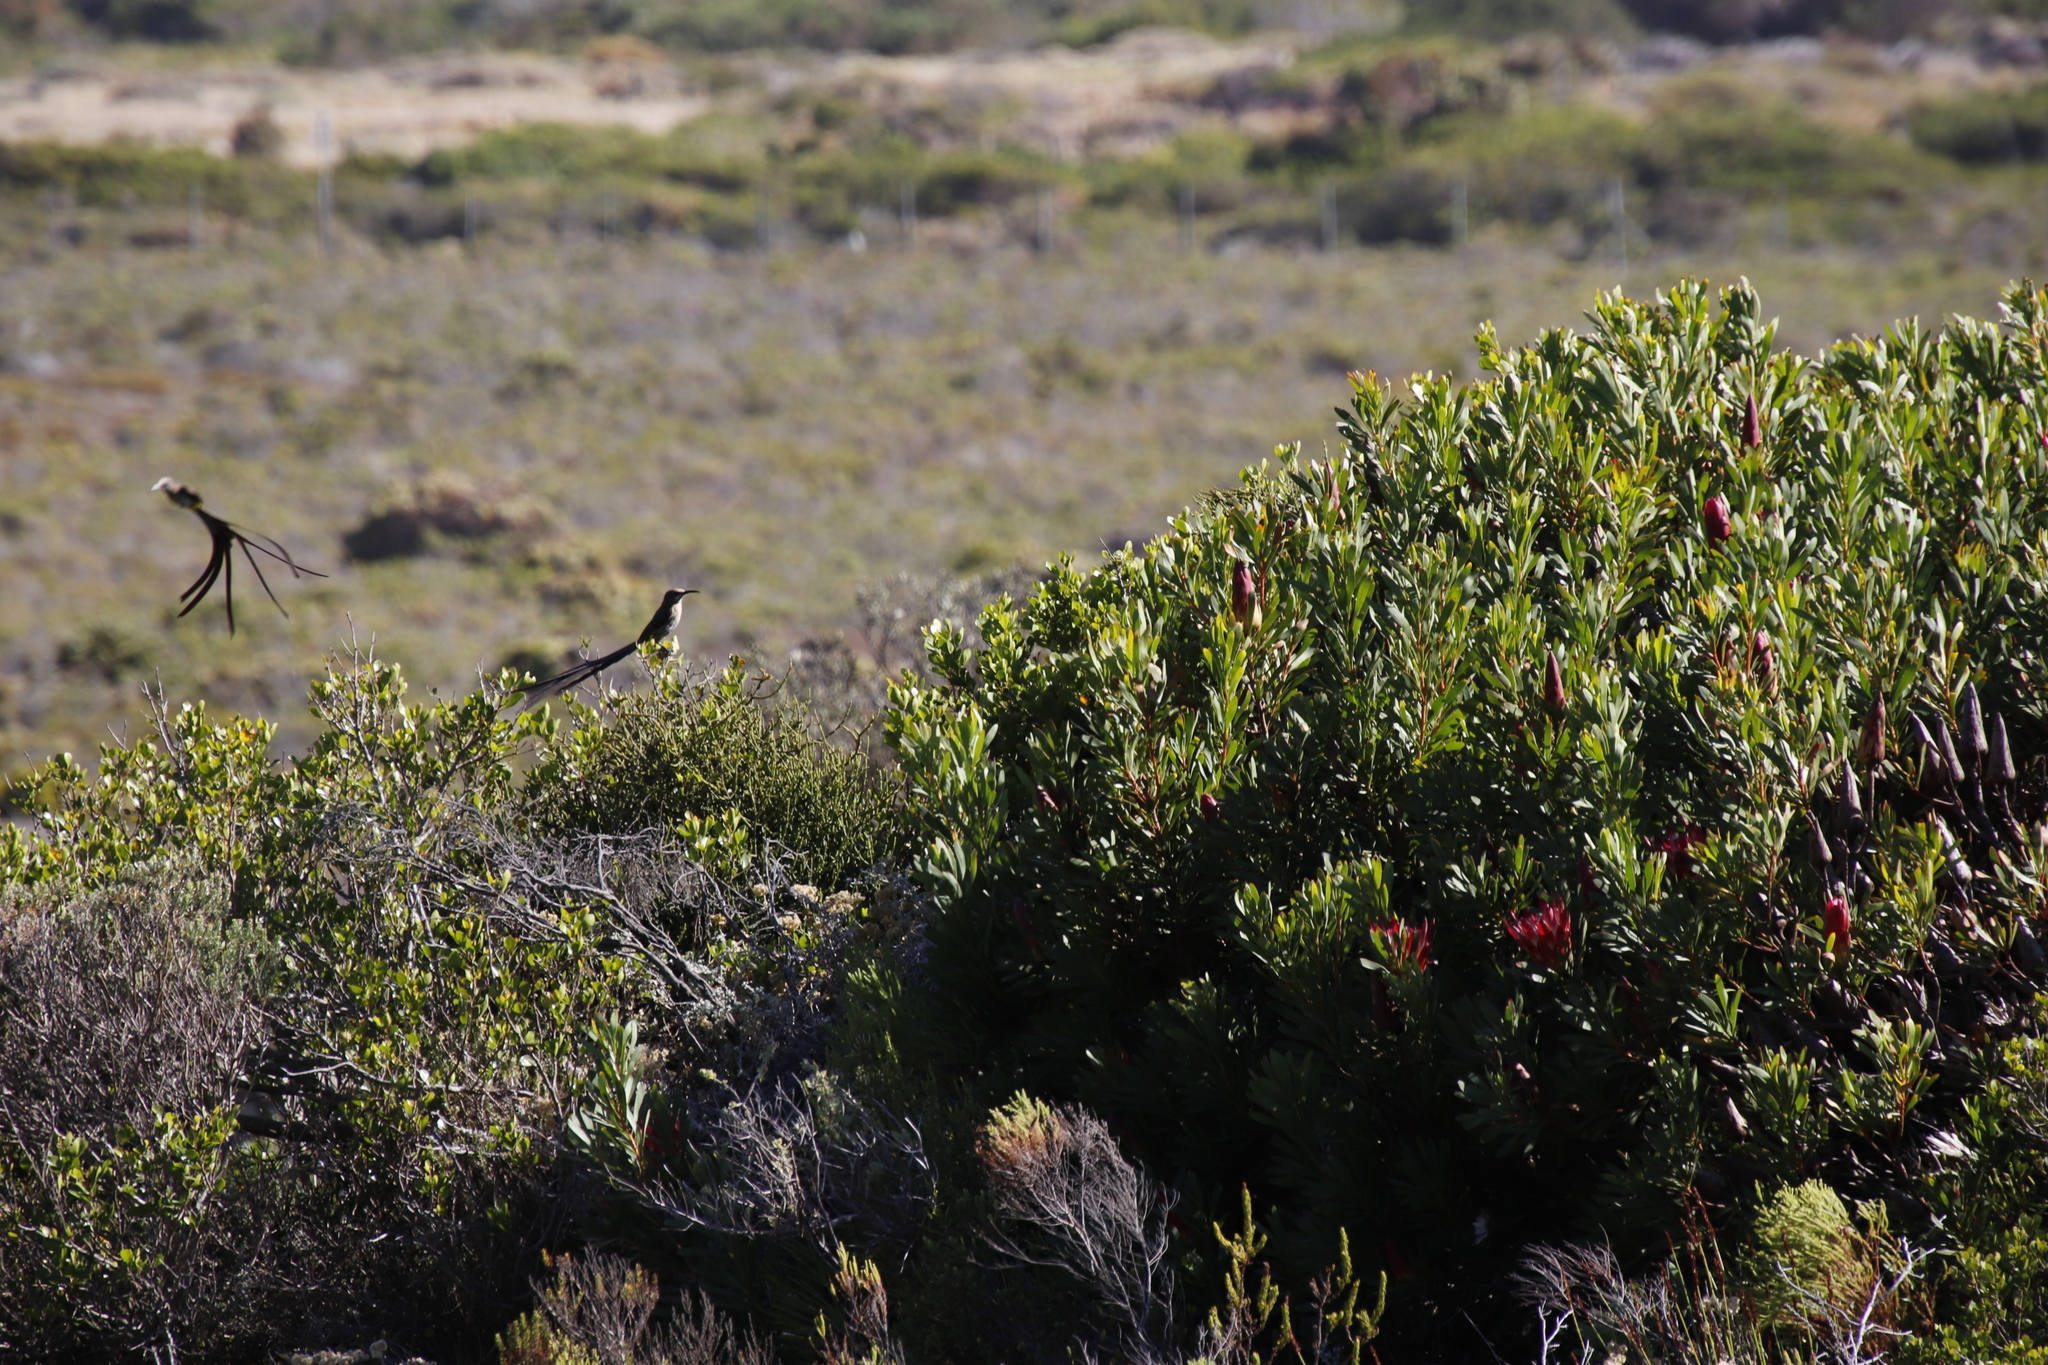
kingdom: Plantae
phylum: Tracheophyta
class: Magnoliopsida
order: Proteales
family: Proteaceae
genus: Protea
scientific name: Protea repens
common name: Sugarbush
